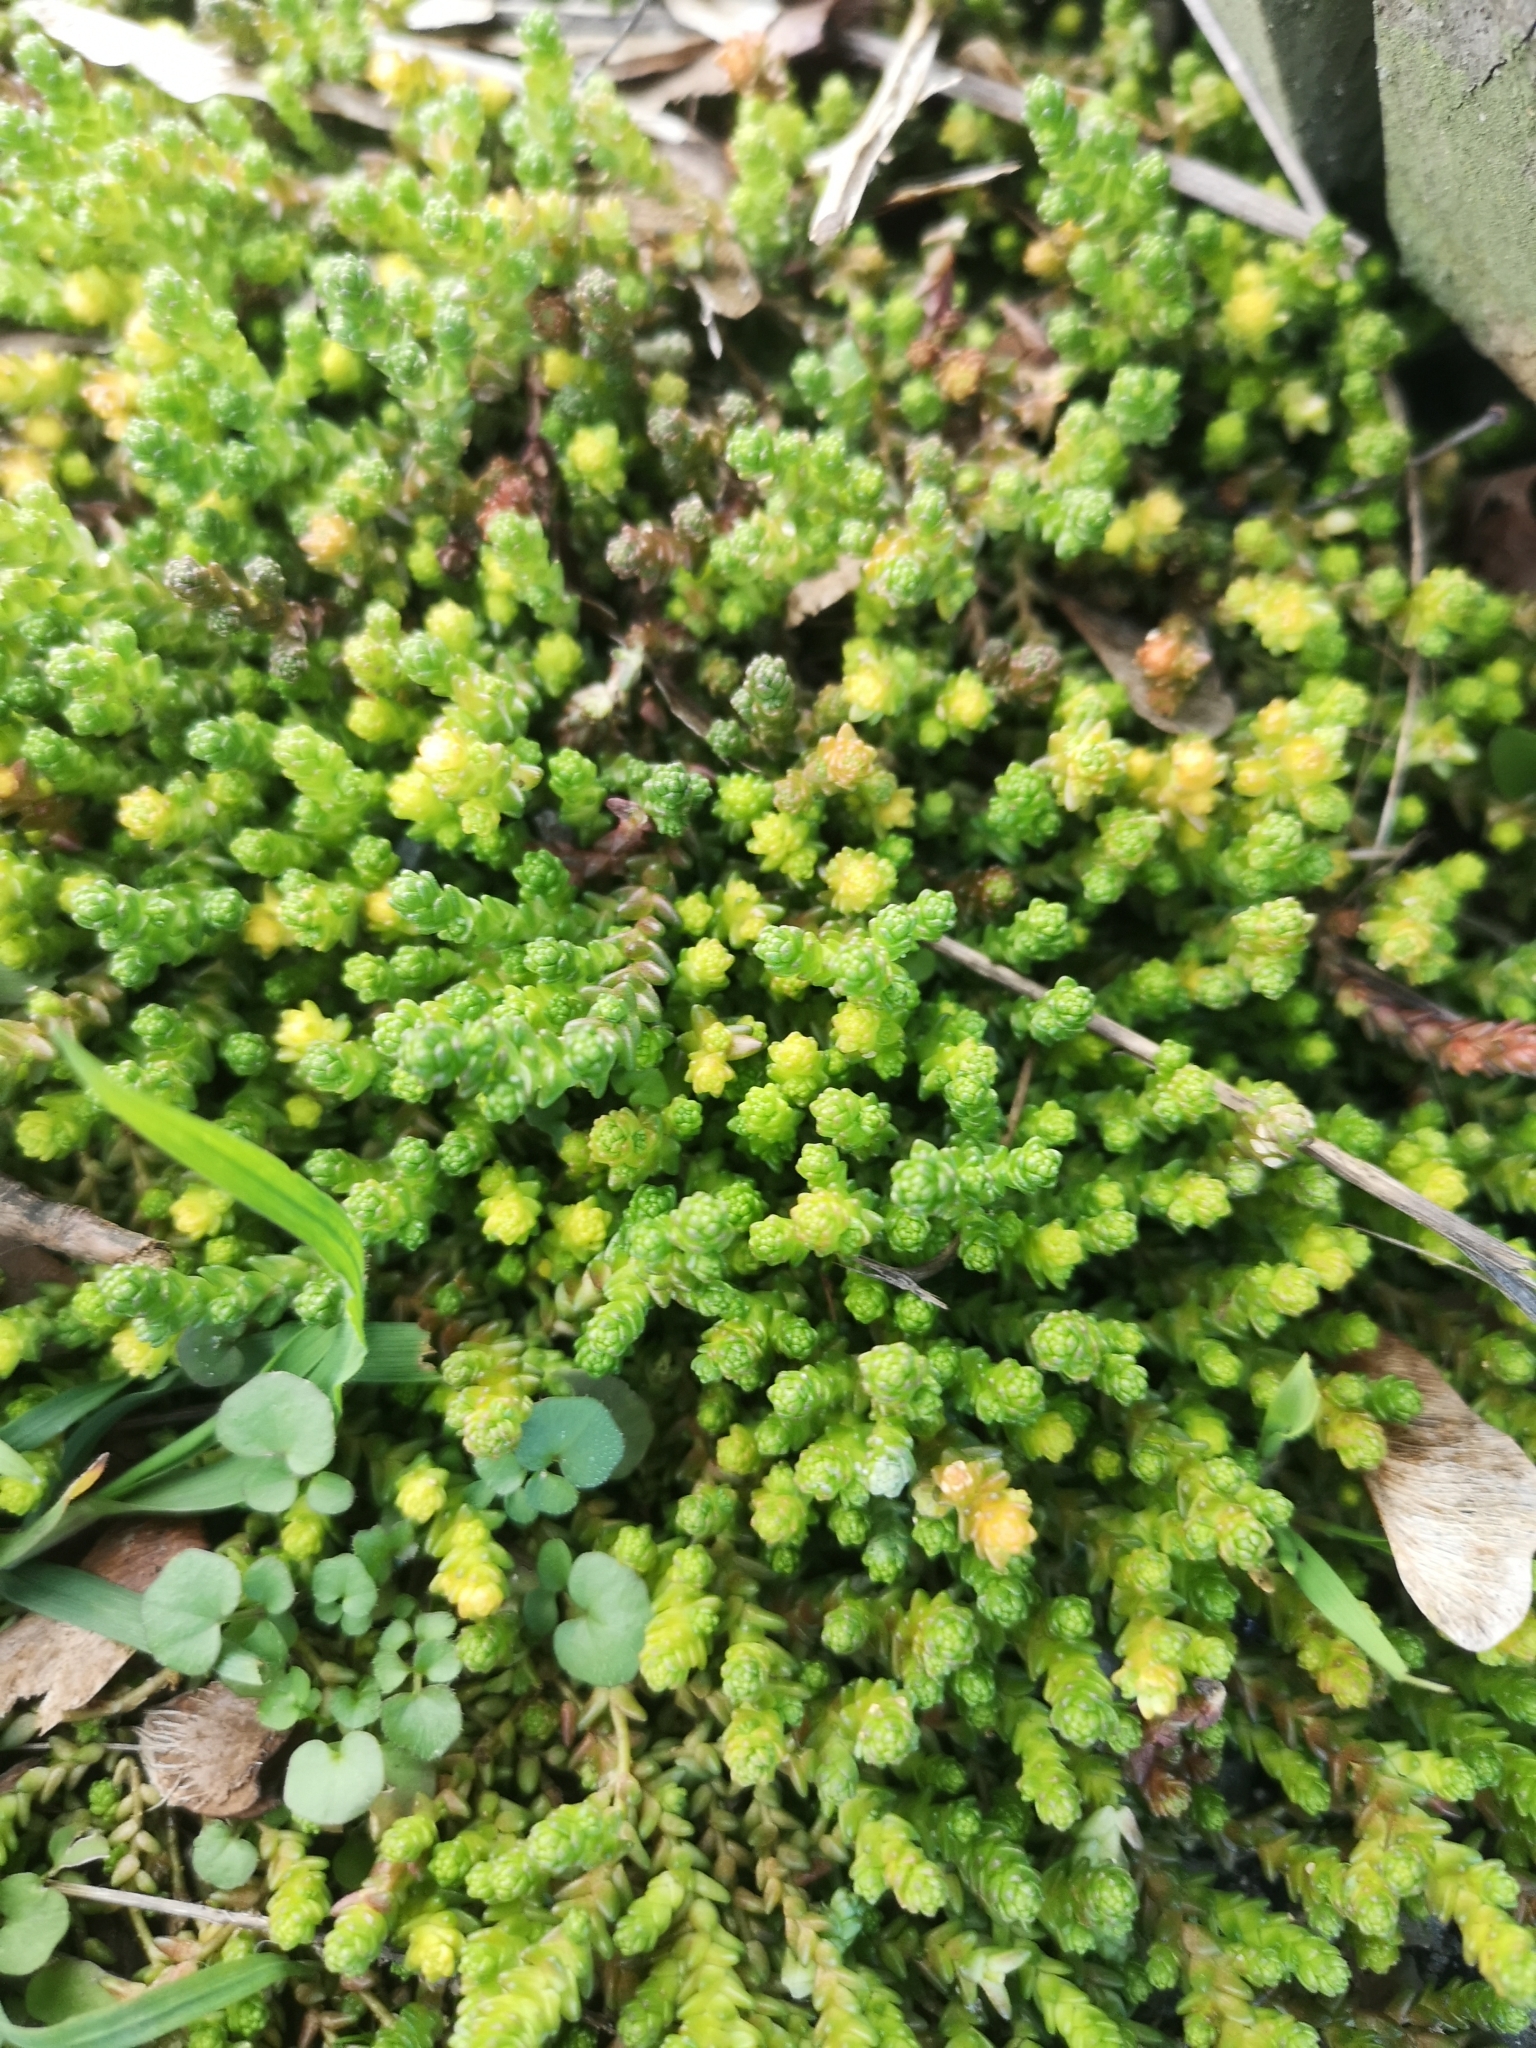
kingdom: Plantae
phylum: Tracheophyta
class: Magnoliopsida
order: Saxifragales
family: Crassulaceae
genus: Sedum
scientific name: Sedum acre
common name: Biting stonecrop
